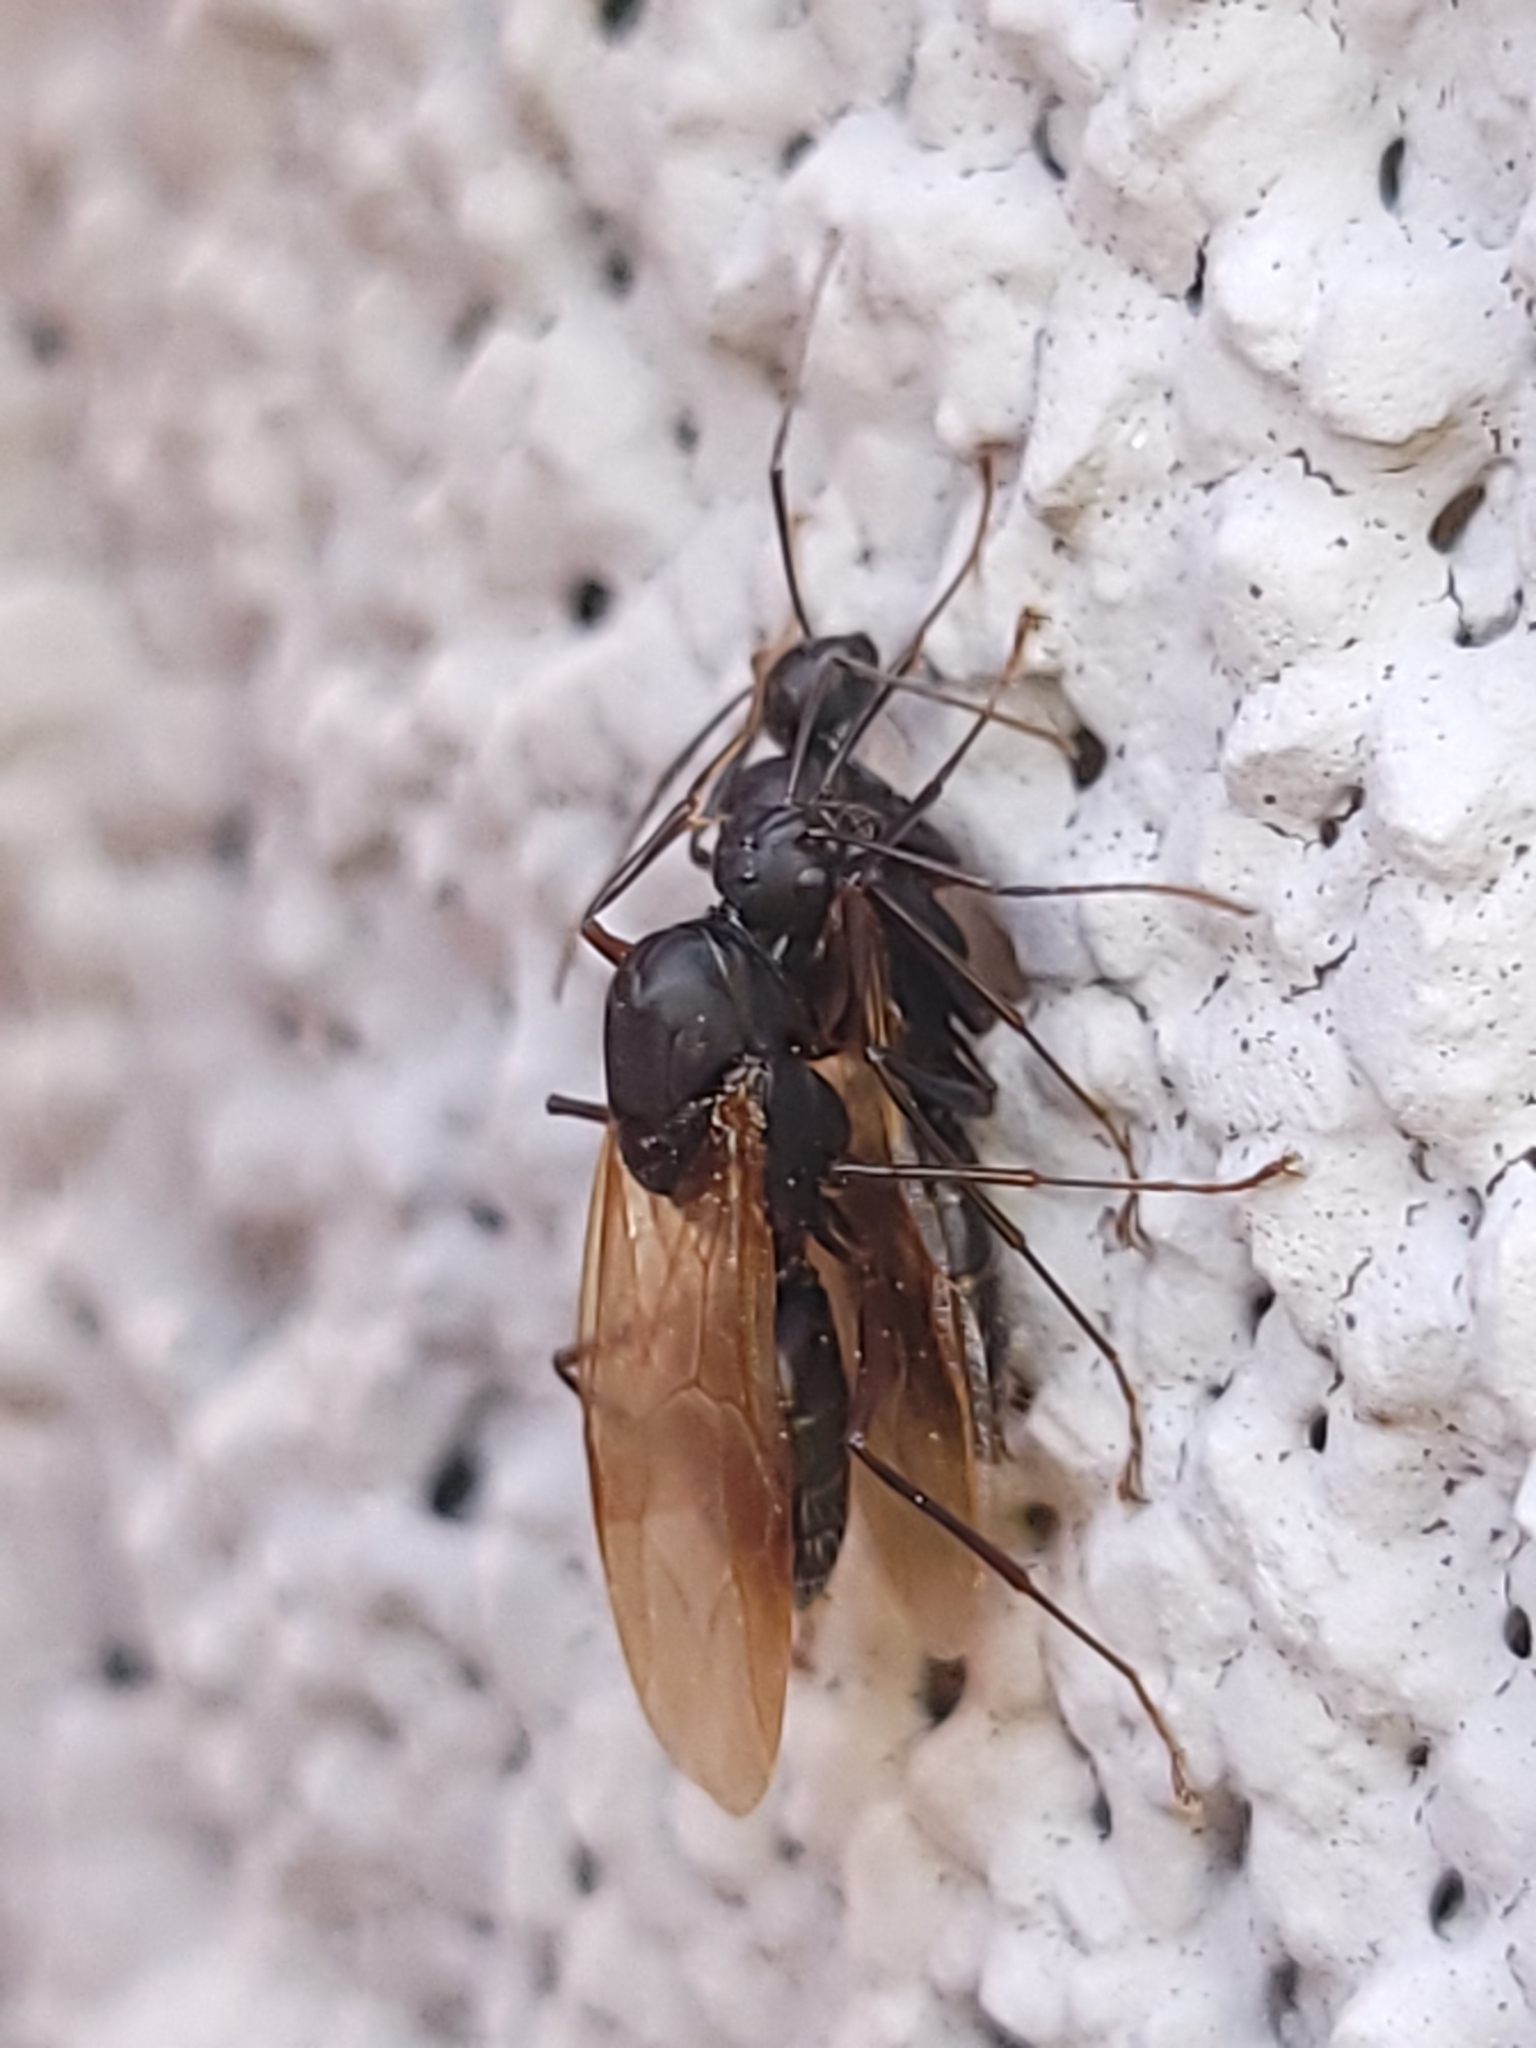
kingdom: Animalia
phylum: Arthropoda
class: Insecta
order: Hymenoptera
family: Formicidae
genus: Camponotus
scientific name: Camponotus pennsylvanicus
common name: Black carpenter ant
